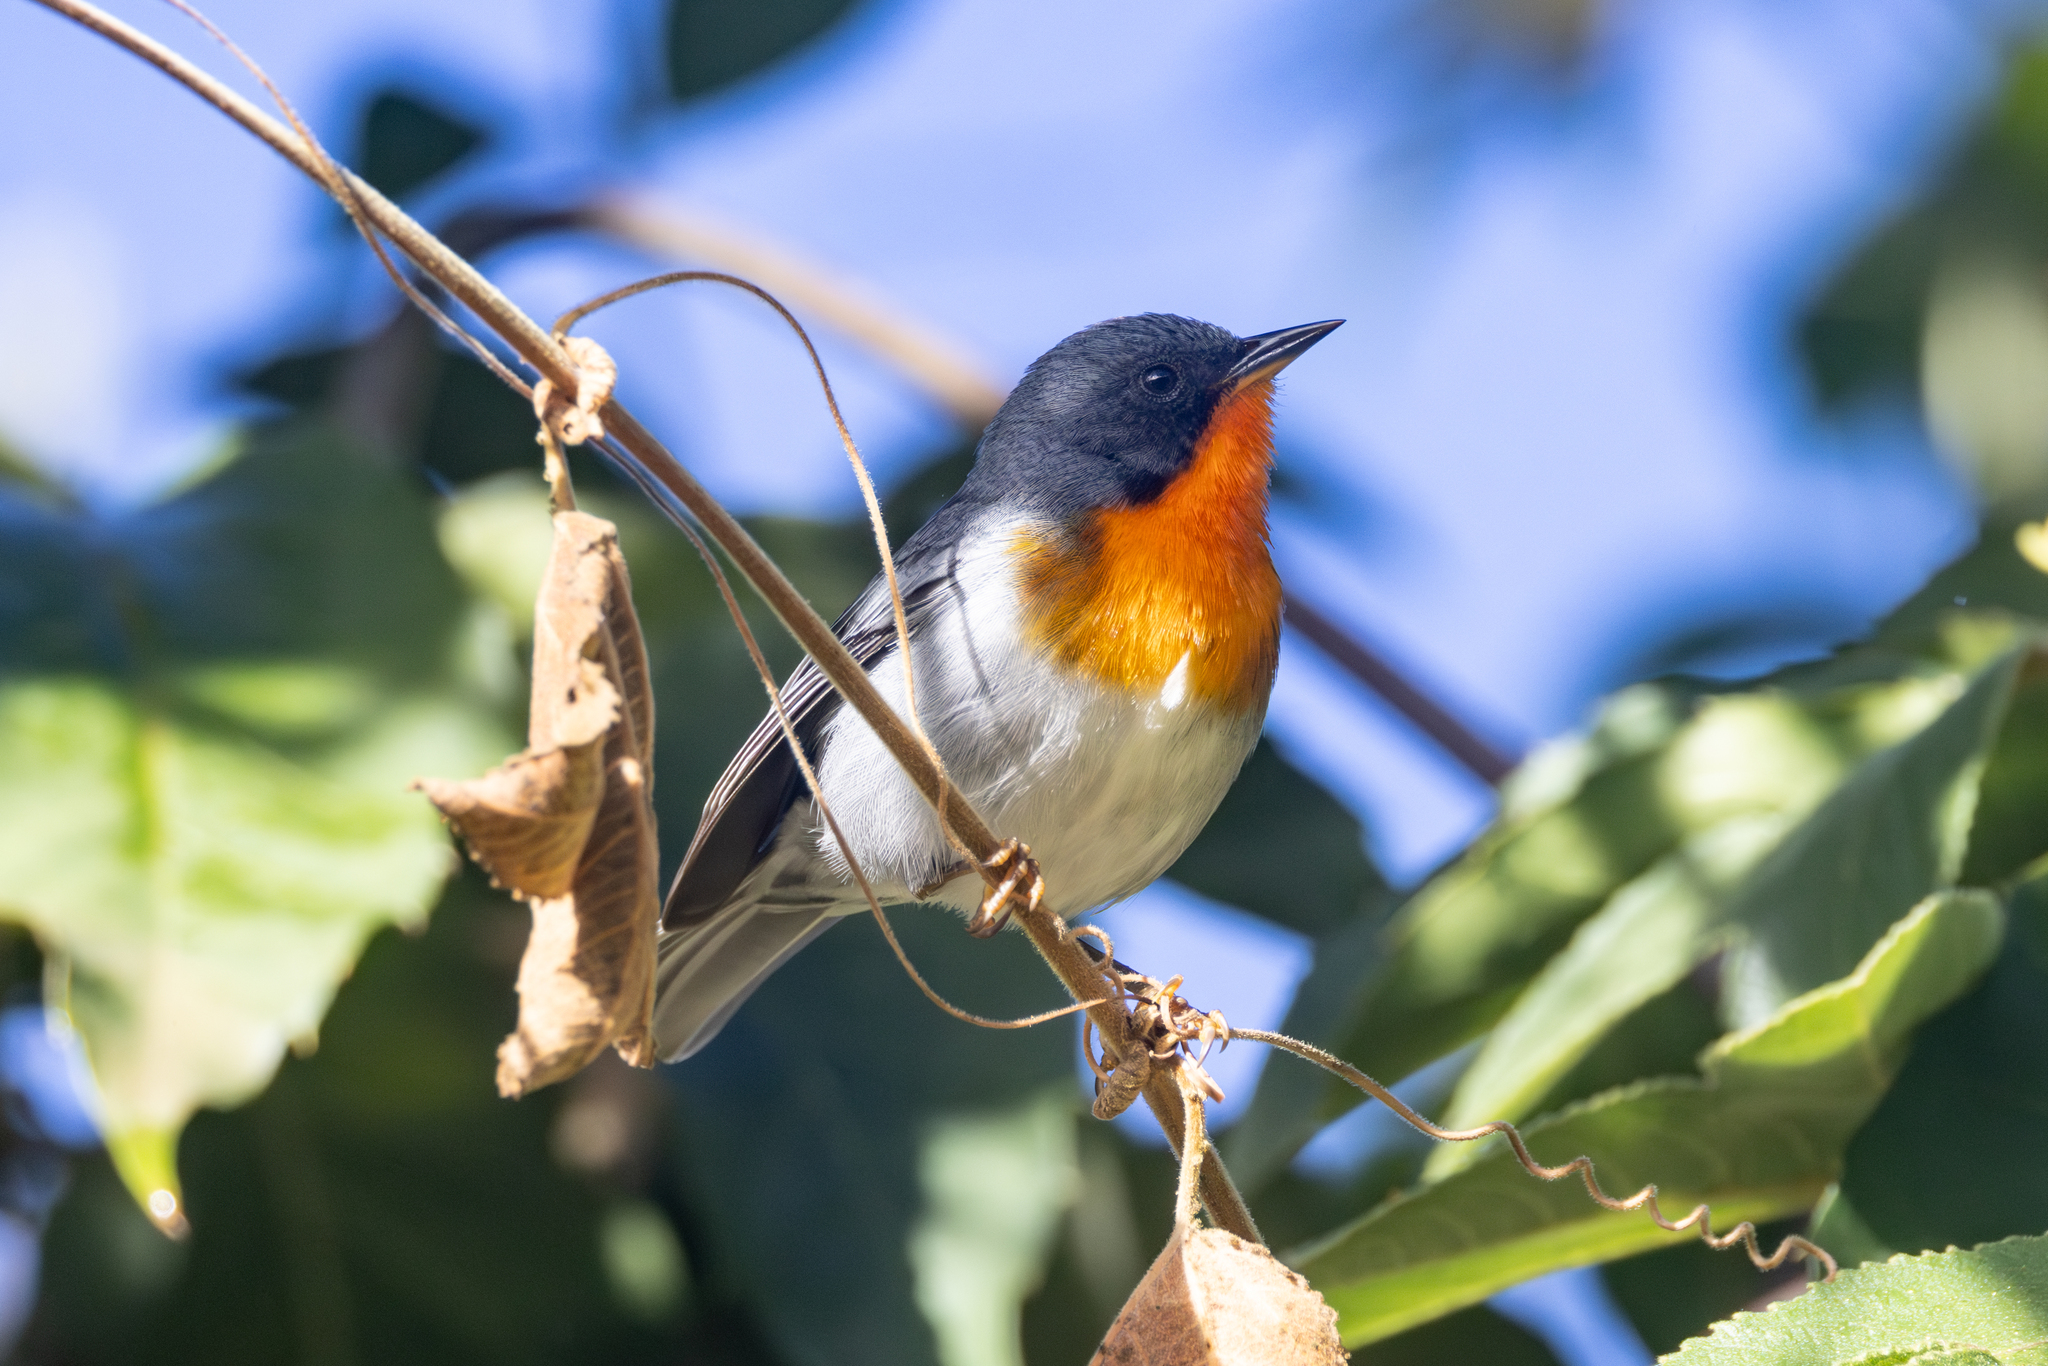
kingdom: Animalia
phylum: Chordata
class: Aves
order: Passeriformes
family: Parulidae
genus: Oreothlypis
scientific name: Oreothlypis gutturalis
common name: Flame-throated warbler
